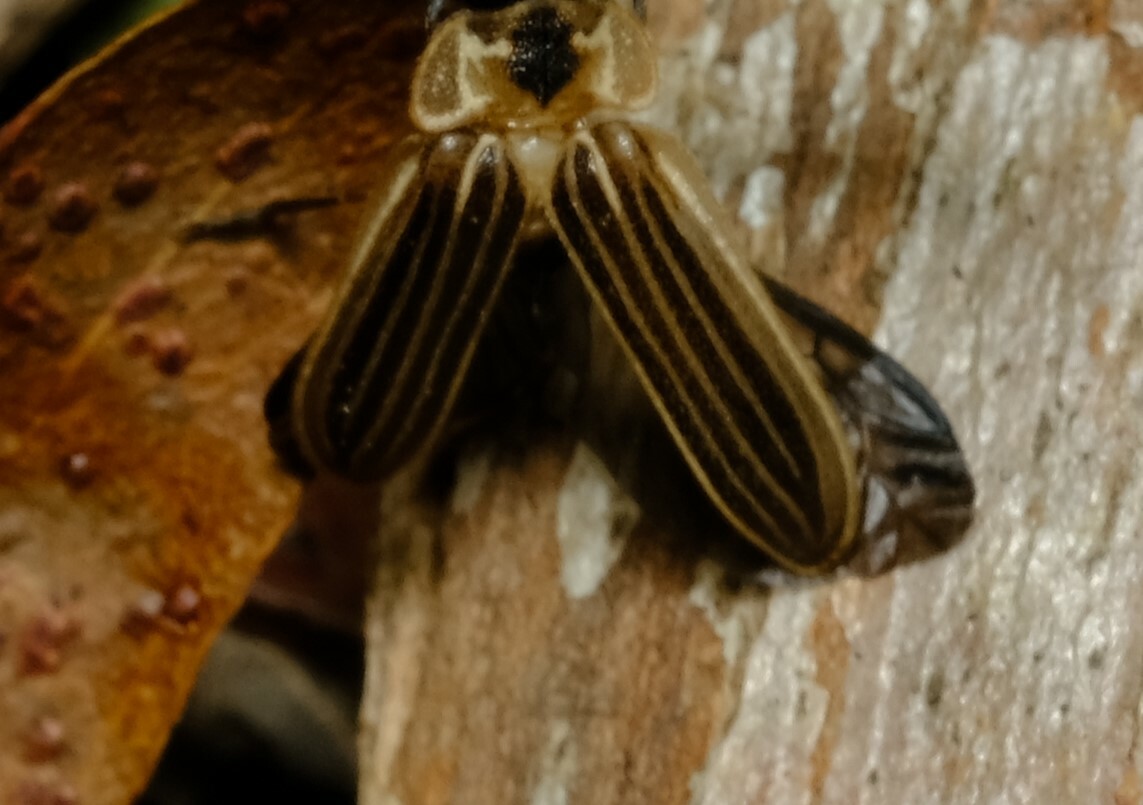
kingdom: Animalia
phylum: Arthropoda
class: Insecta
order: Coleoptera
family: Lampyridae
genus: Atyphella
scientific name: Atyphella lychnus
